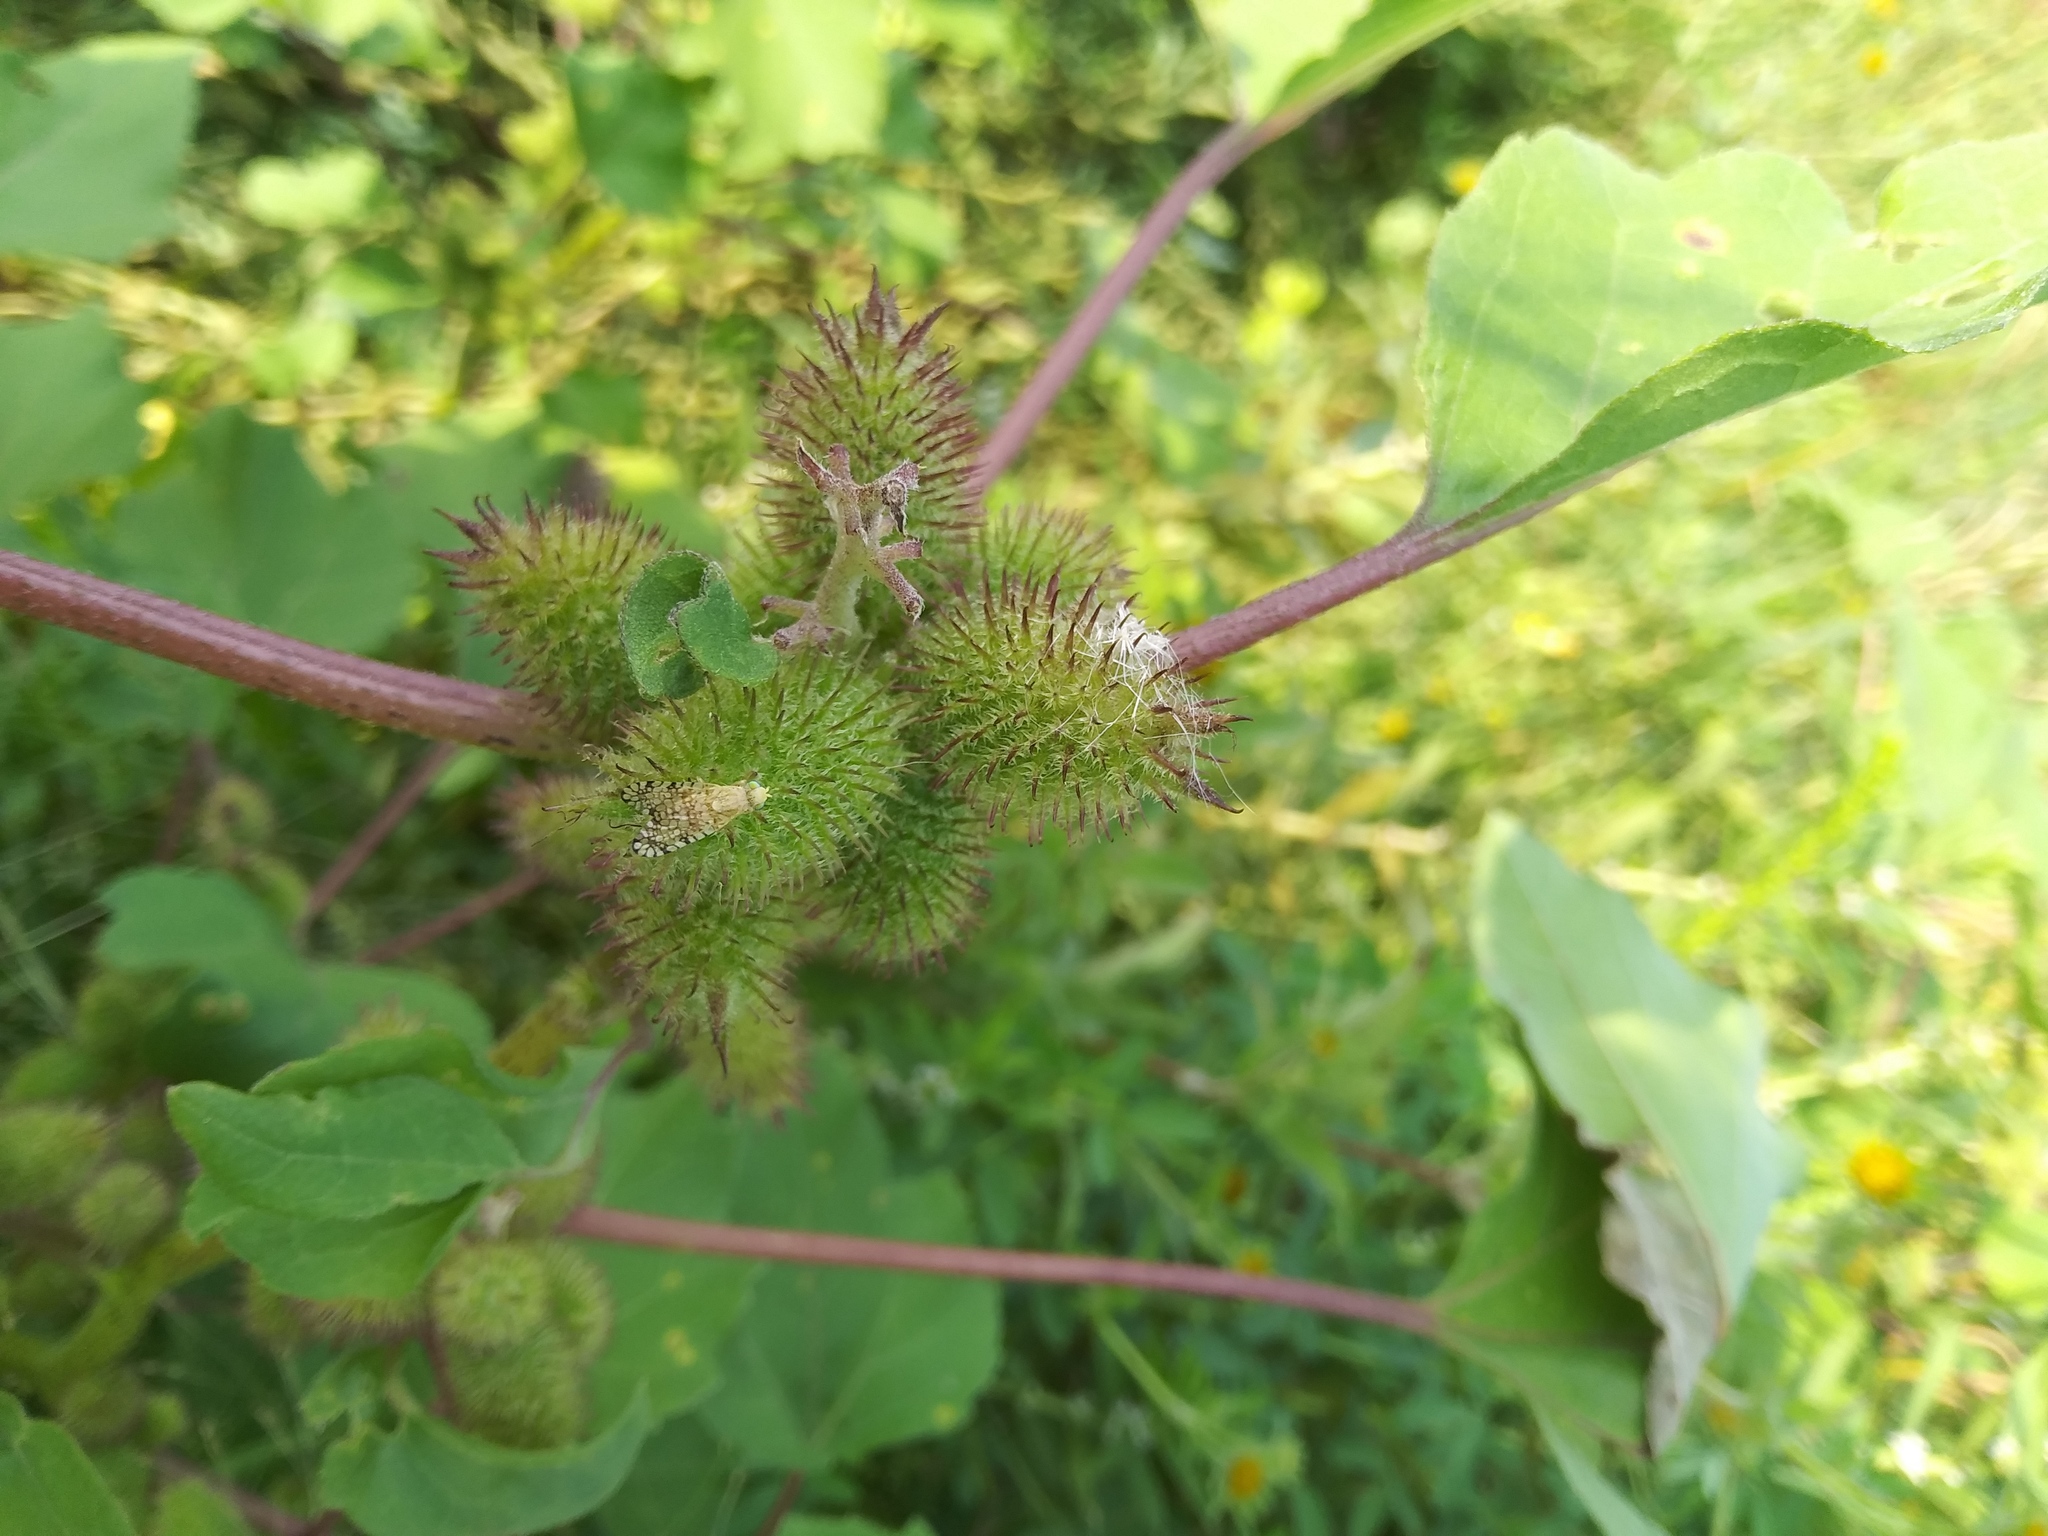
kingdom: Plantae
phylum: Tracheophyta
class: Magnoliopsida
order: Asterales
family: Asteraceae
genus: Xanthium
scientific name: Xanthium strumarium
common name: Rough cocklebur
